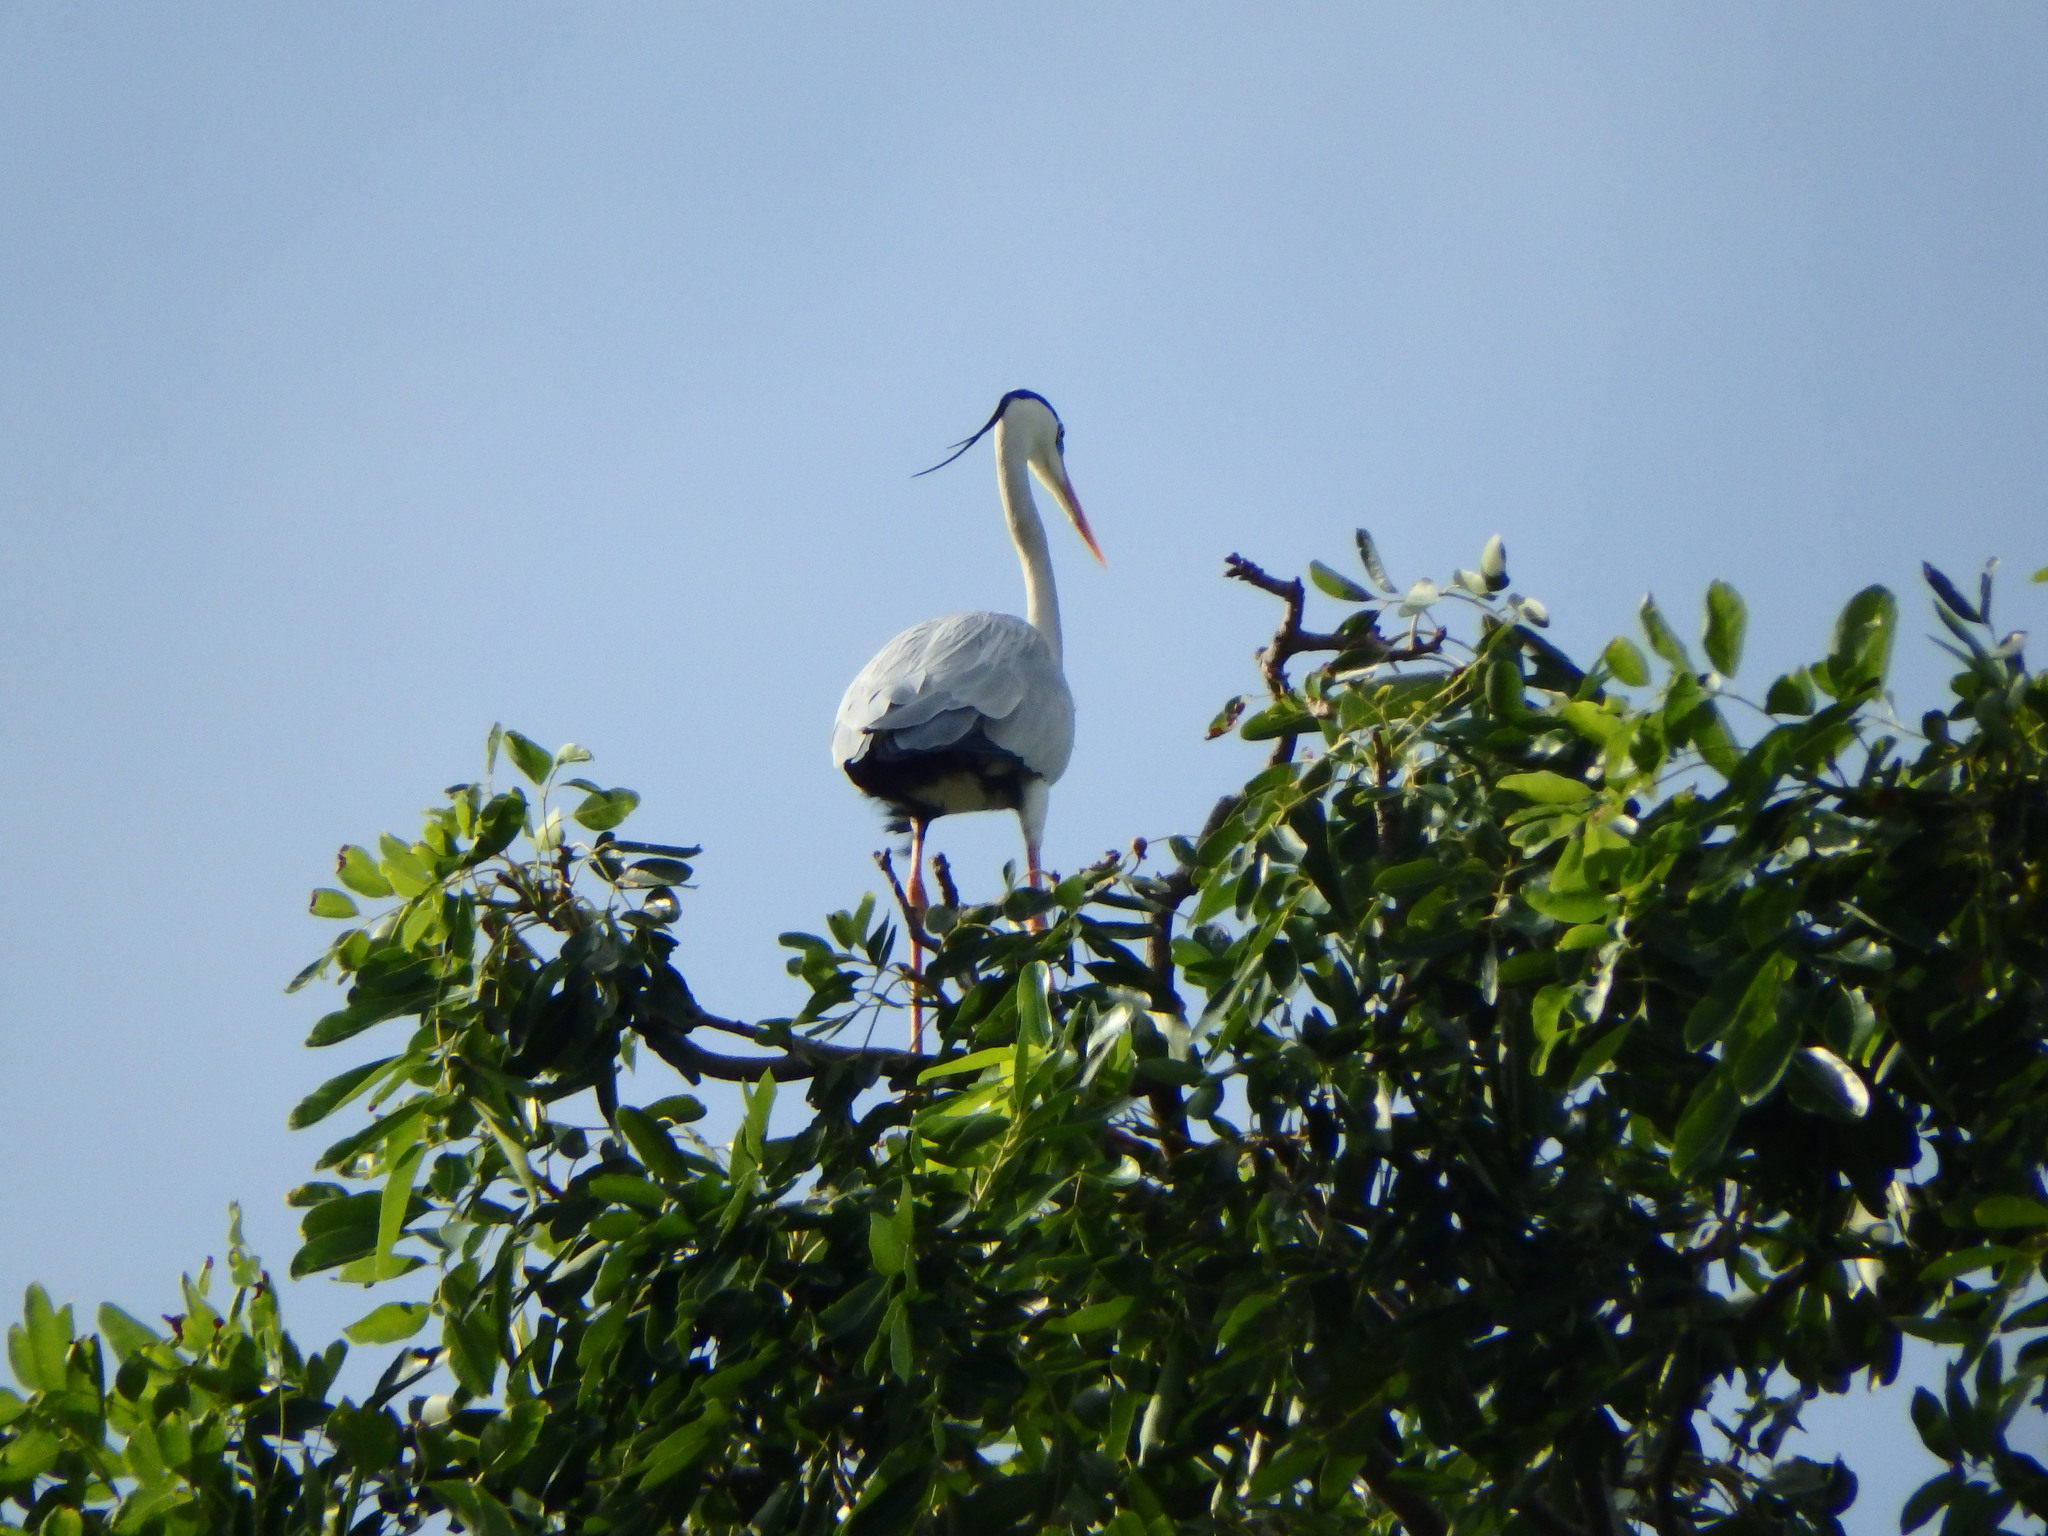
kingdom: Animalia
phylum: Chordata
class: Aves
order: Pelecaniformes
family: Ardeidae
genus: Ardea
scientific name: Ardea cinerea
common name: Grey heron
